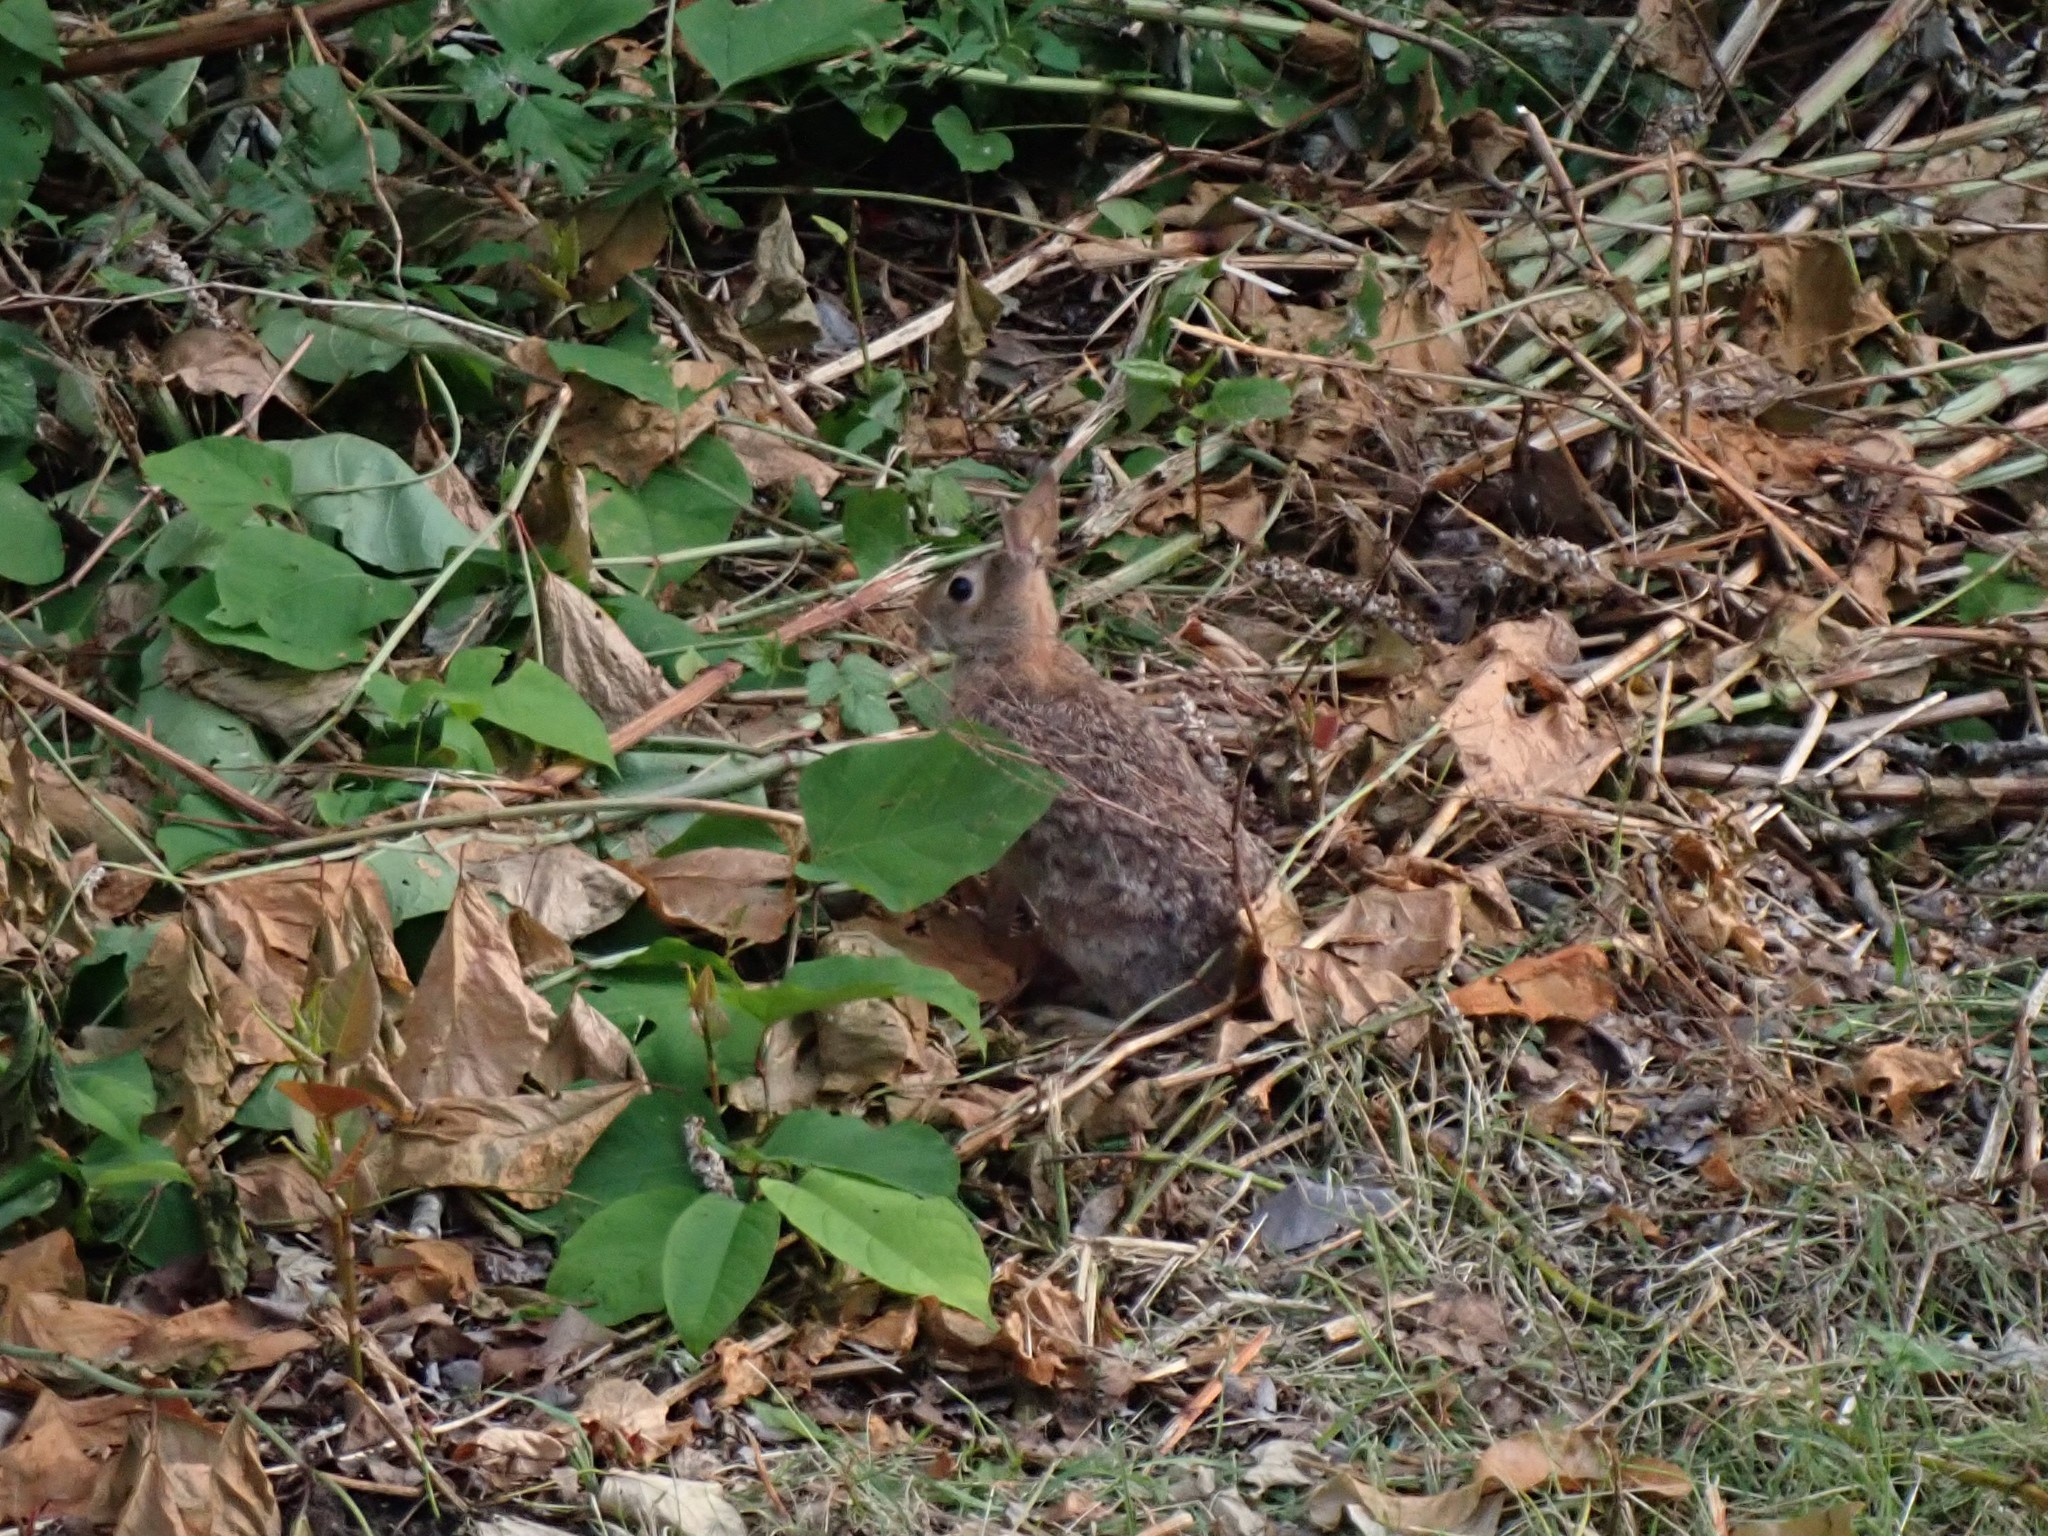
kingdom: Animalia
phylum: Chordata
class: Mammalia
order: Lagomorpha
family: Leporidae
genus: Sylvilagus
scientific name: Sylvilagus floridanus
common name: Eastern cottontail
